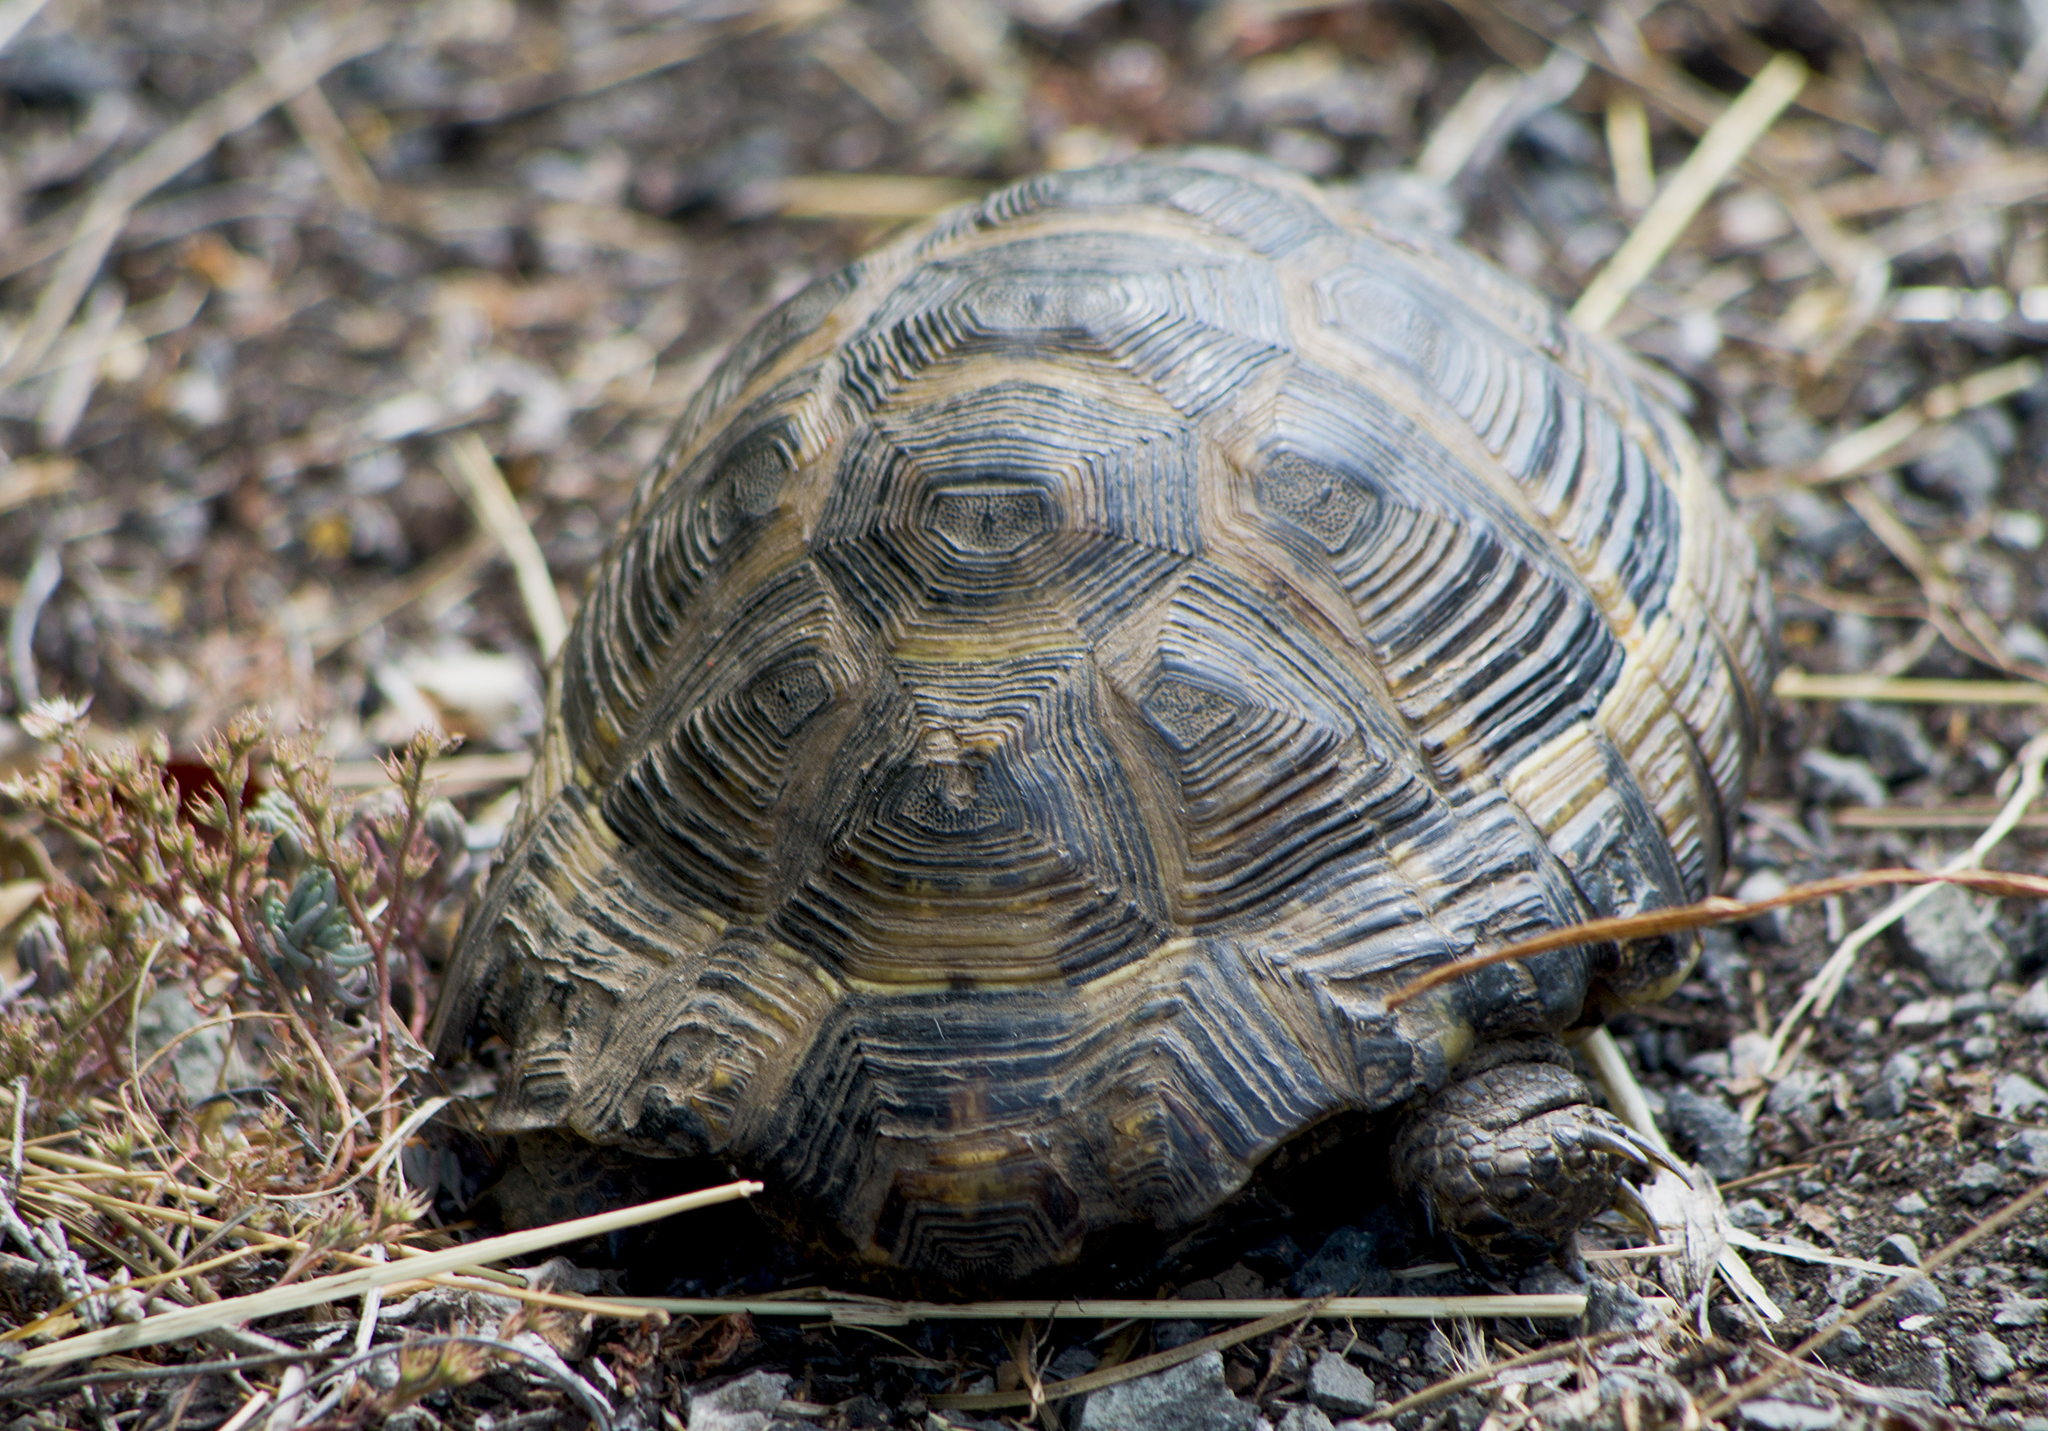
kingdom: Animalia
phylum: Chordata
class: Testudines
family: Testudinidae
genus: Testudo
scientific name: Testudo graeca
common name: Common tortoise
